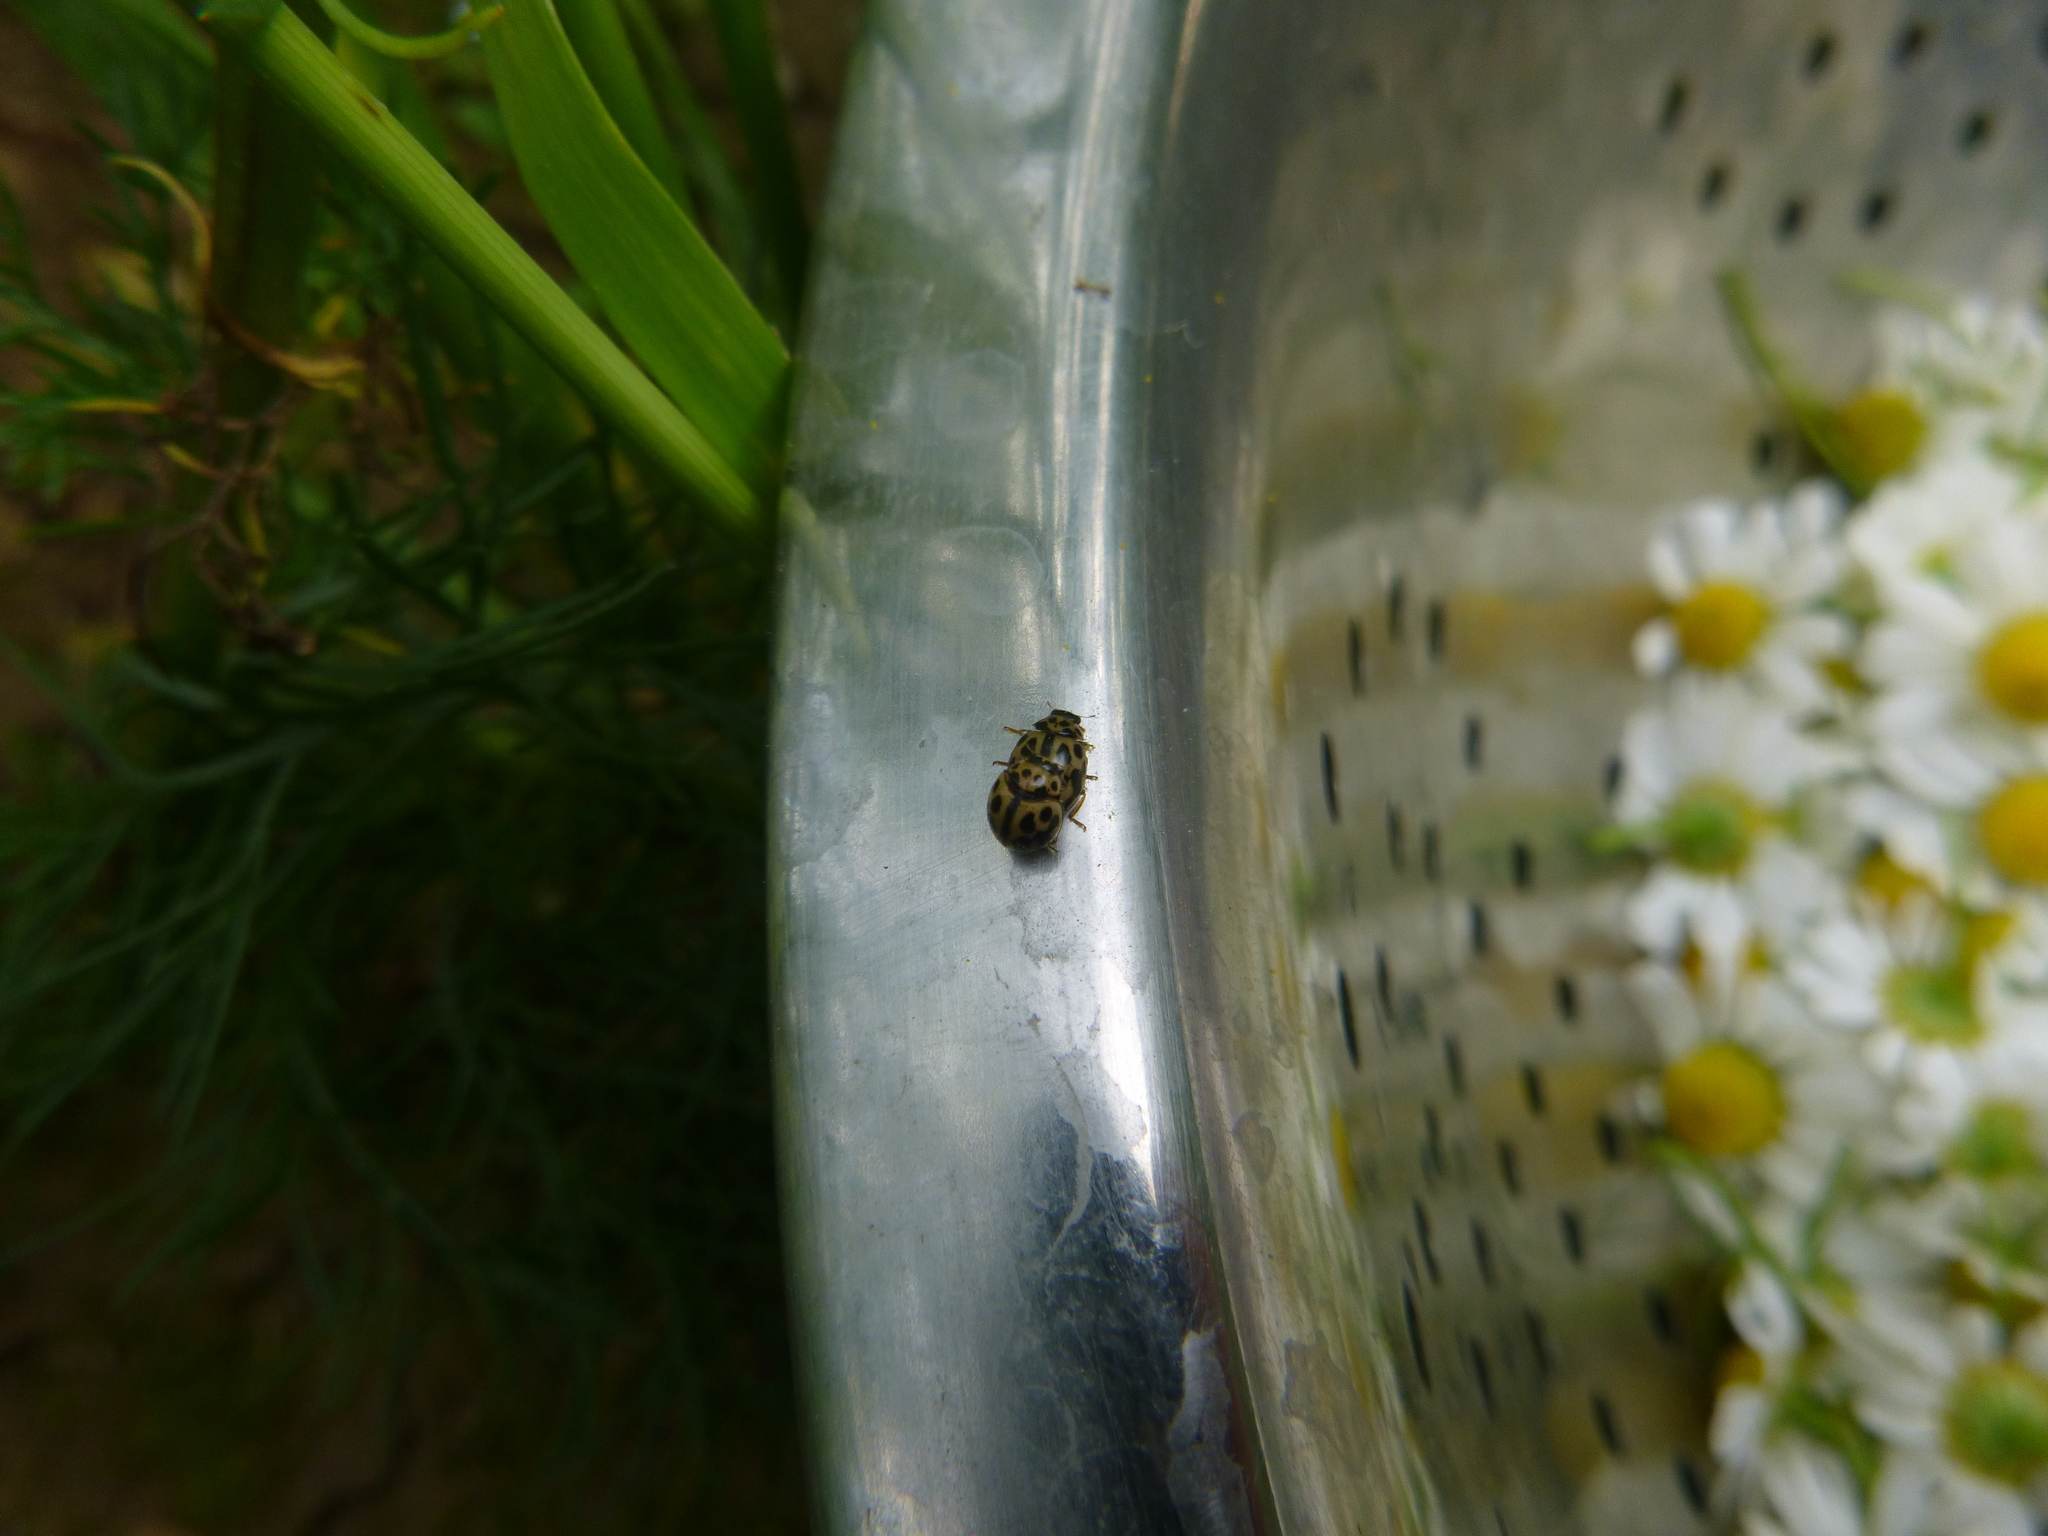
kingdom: Animalia
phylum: Arthropoda
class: Insecta
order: Coleoptera
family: Coccinellidae
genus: Tytthaspis
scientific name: Tytthaspis sedecimpunctata
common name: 16-spot ladybird
